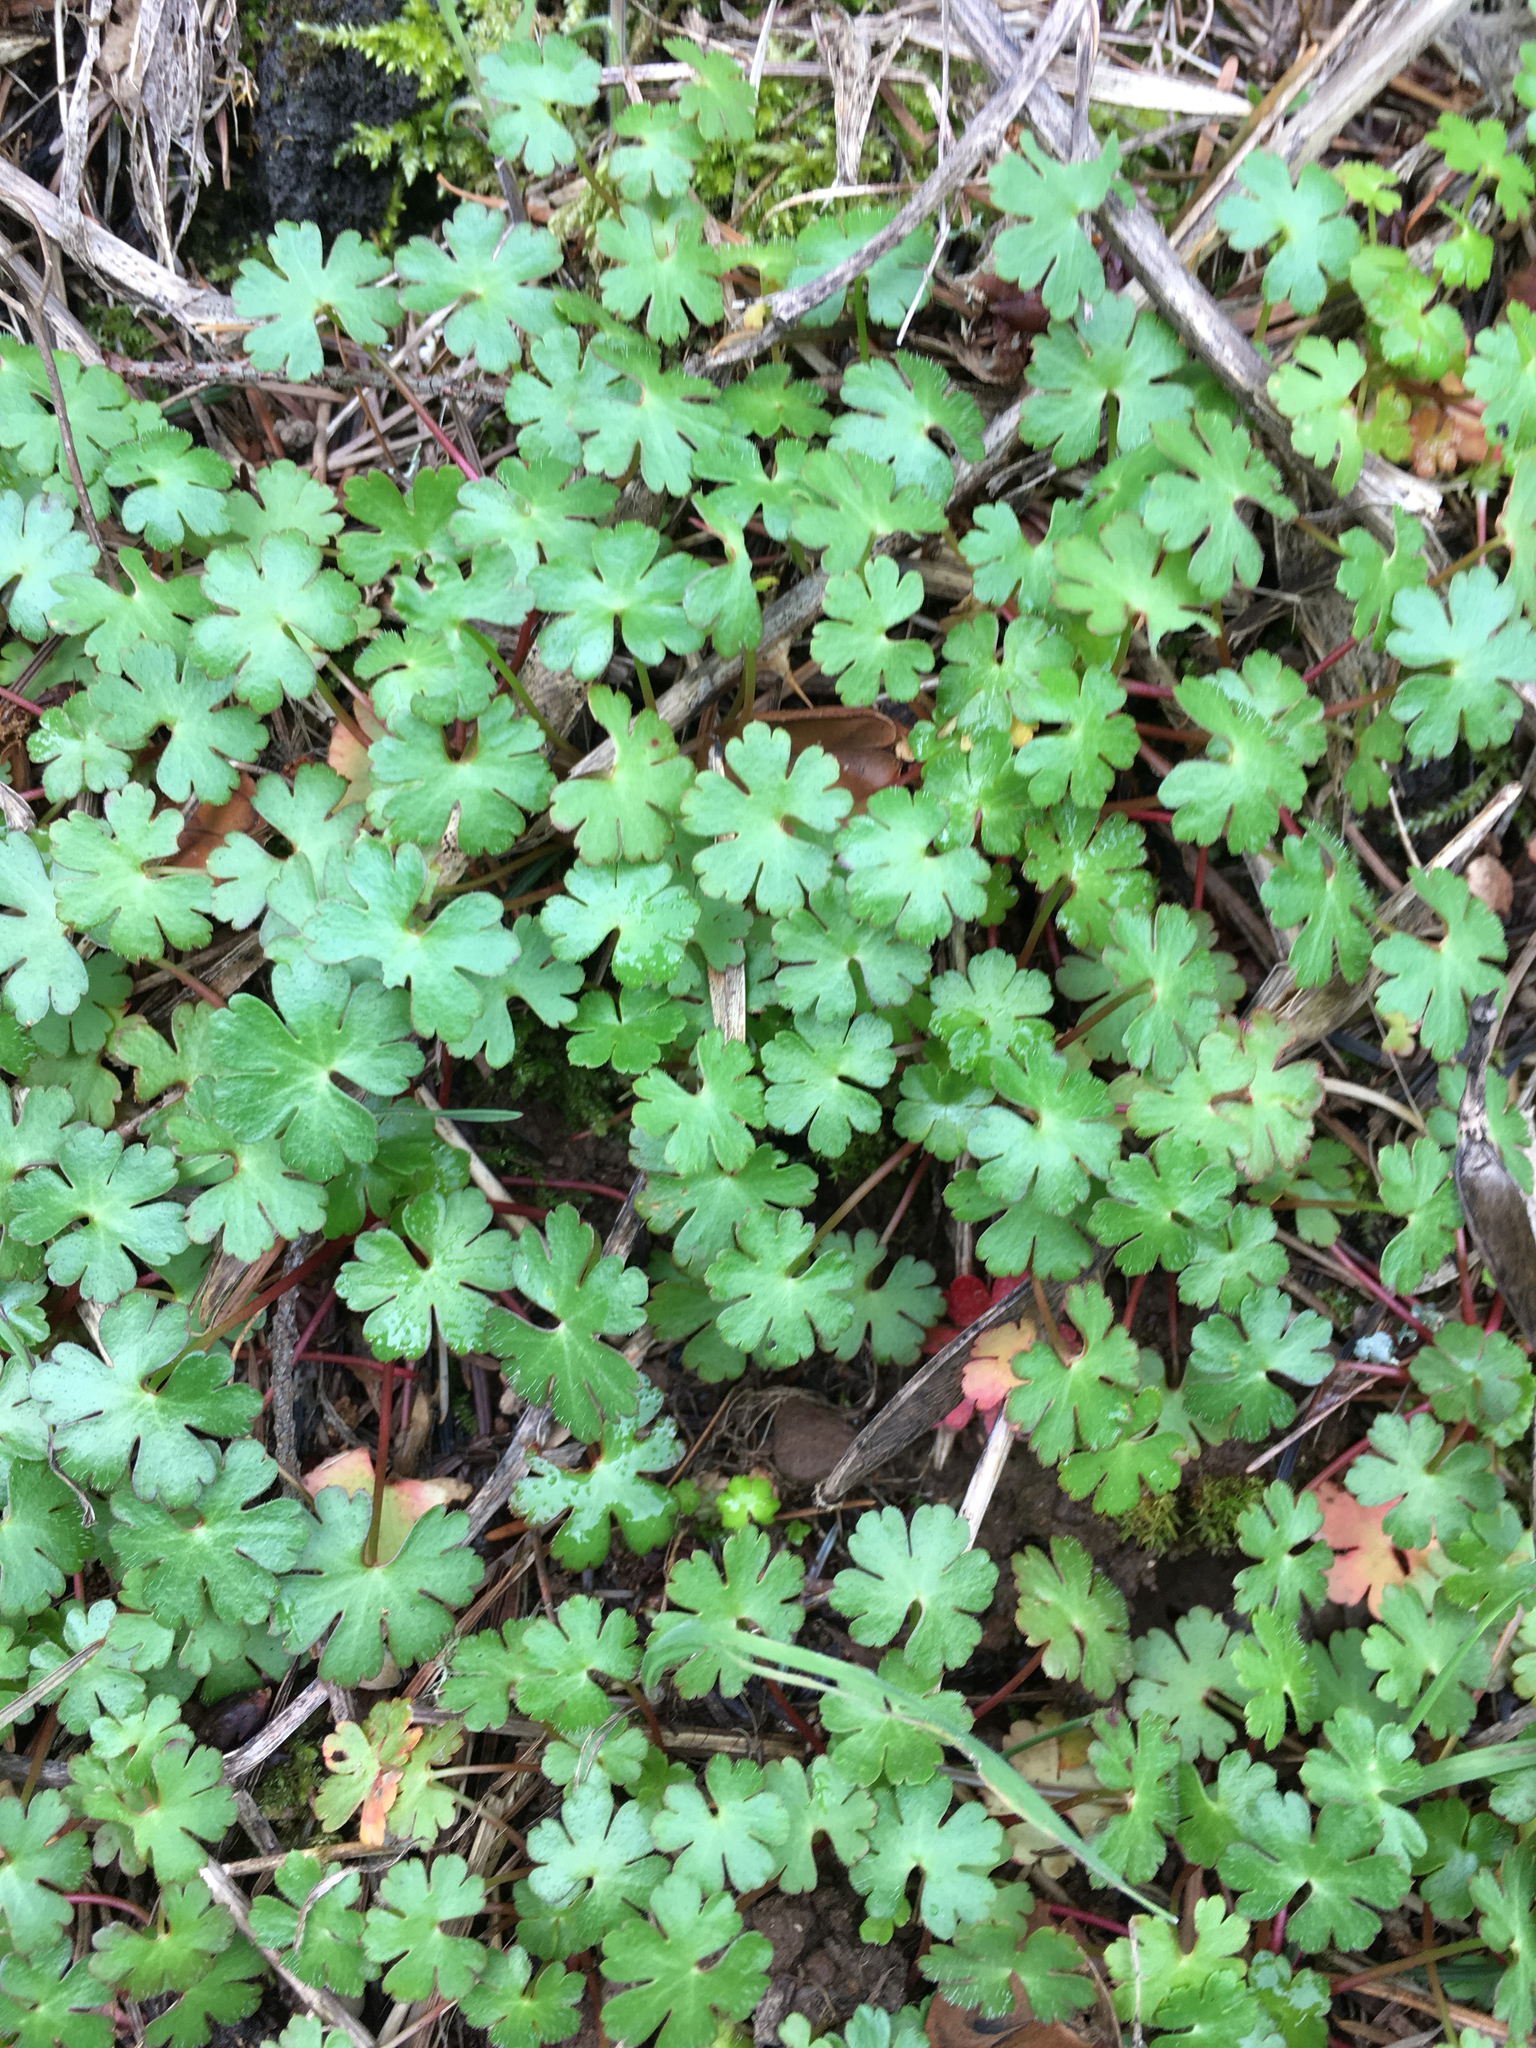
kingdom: Plantae
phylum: Tracheophyta
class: Magnoliopsida
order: Geraniales
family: Geraniaceae
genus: Geranium
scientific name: Geranium lucidum
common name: Shining crane's-bill
